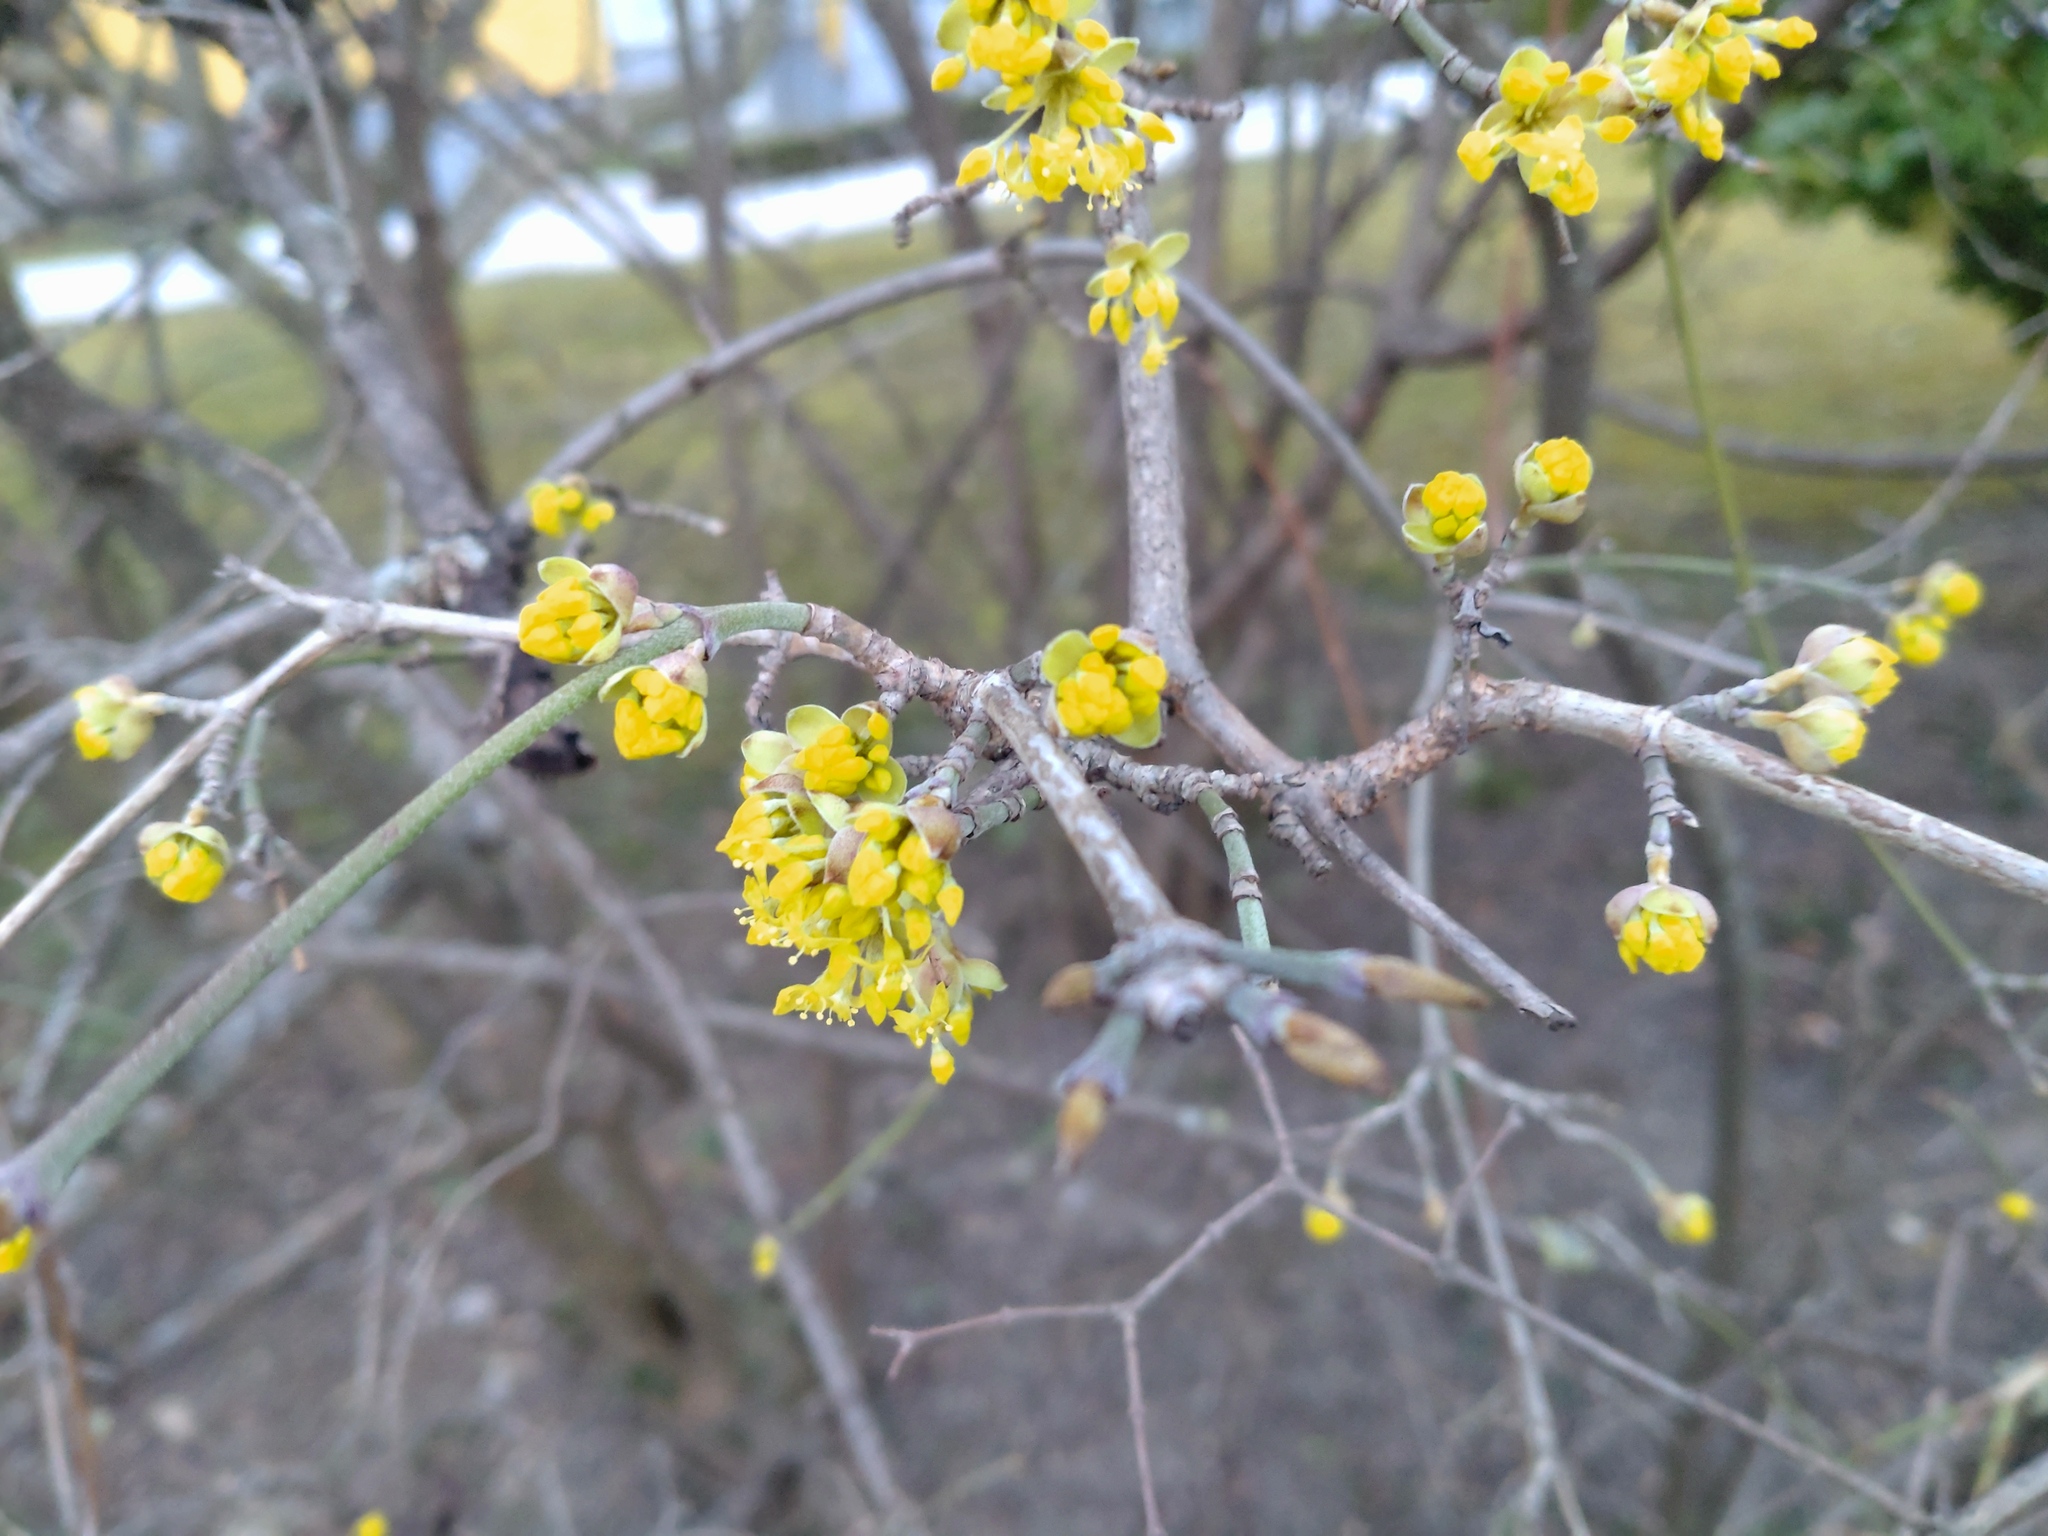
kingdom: Plantae
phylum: Tracheophyta
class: Magnoliopsida
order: Cornales
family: Cornaceae
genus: Cornus
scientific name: Cornus mas
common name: Cornelian-cherry
